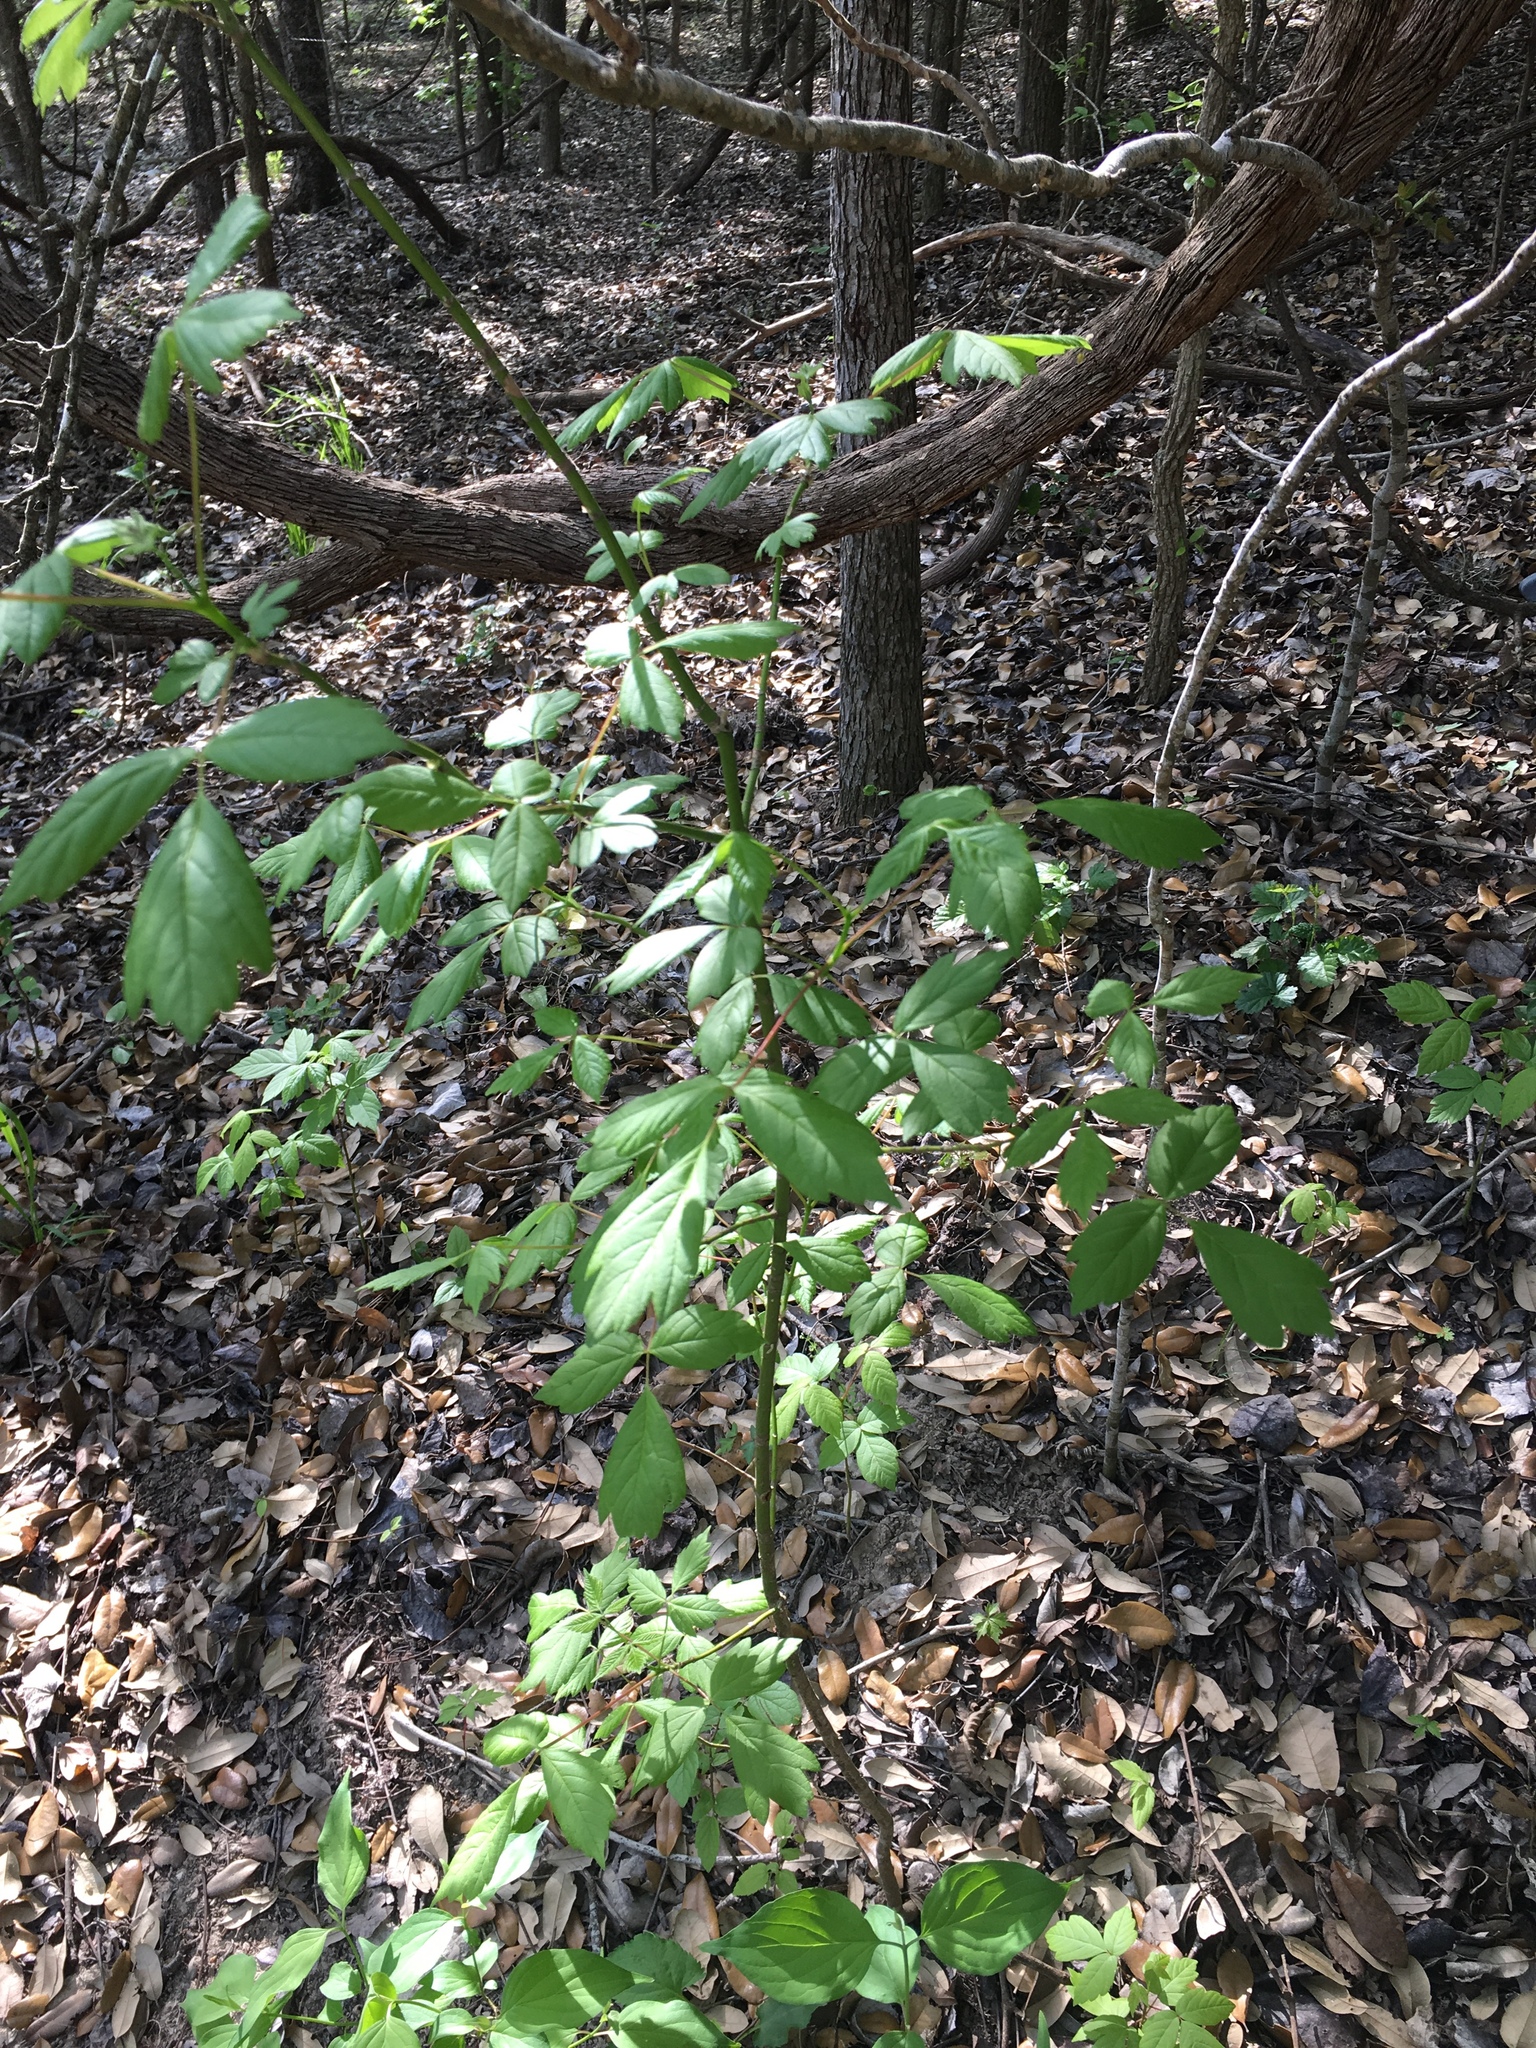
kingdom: Plantae
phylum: Tracheophyta
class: Magnoliopsida
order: Sapindales
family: Sapindaceae
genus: Acer
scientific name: Acer negundo
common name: Ashleaf maple
